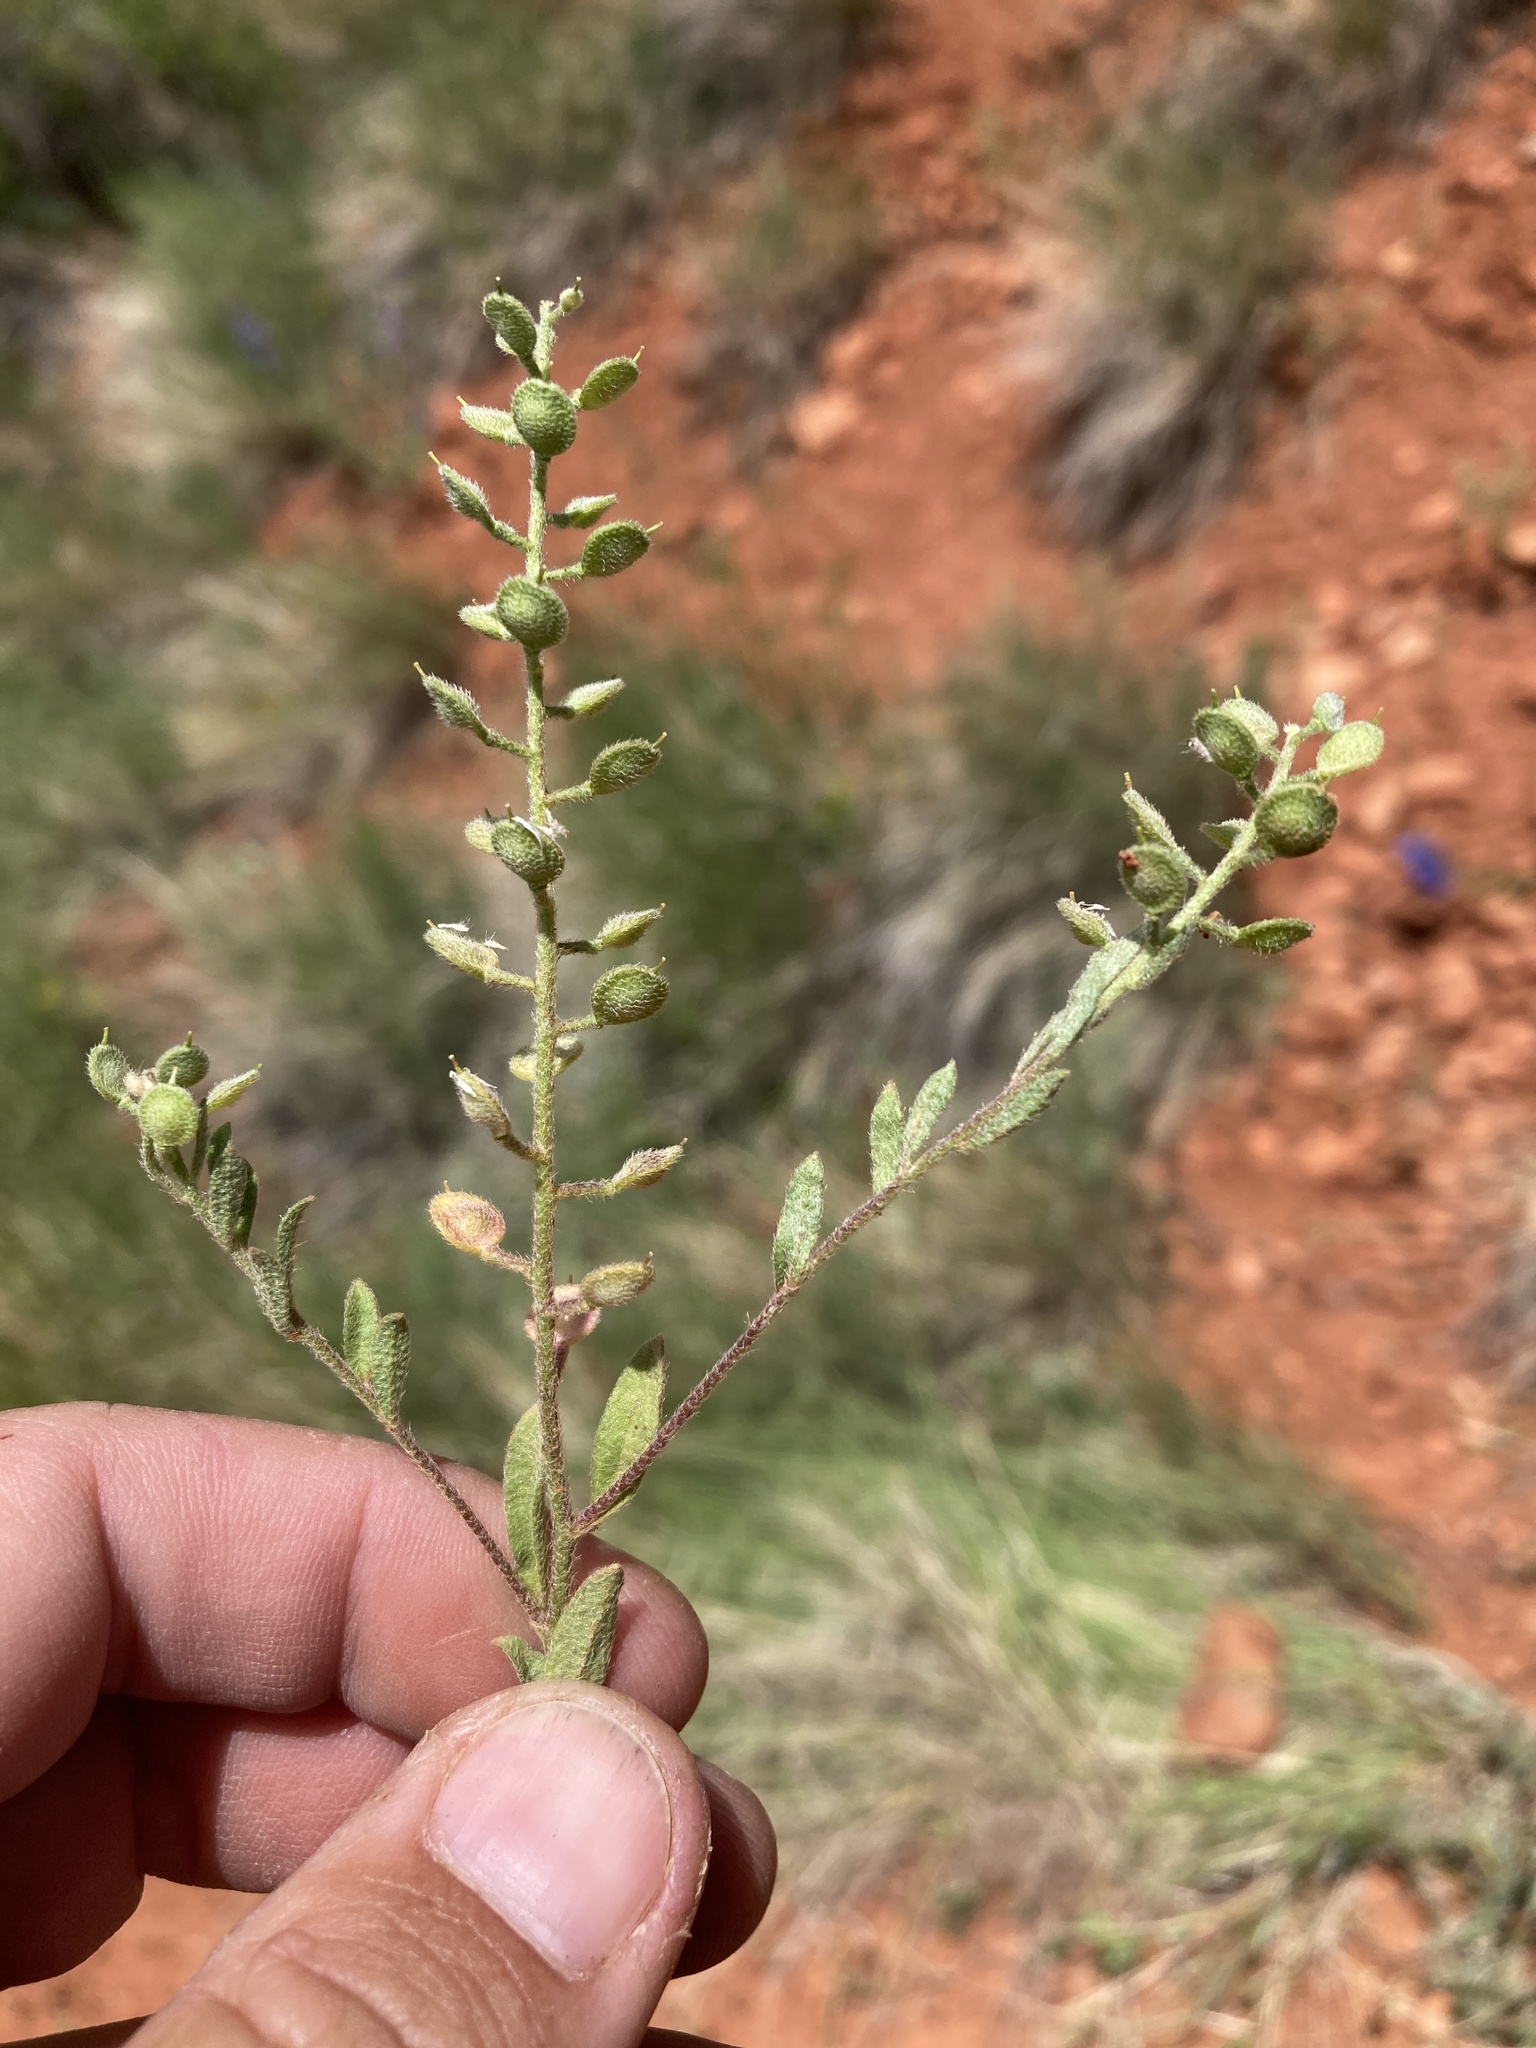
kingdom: Plantae
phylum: Tracheophyta
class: Magnoliopsida
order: Brassicales
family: Brassicaceae
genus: Alyssum
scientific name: Alyssum simplex
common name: Alyssum
